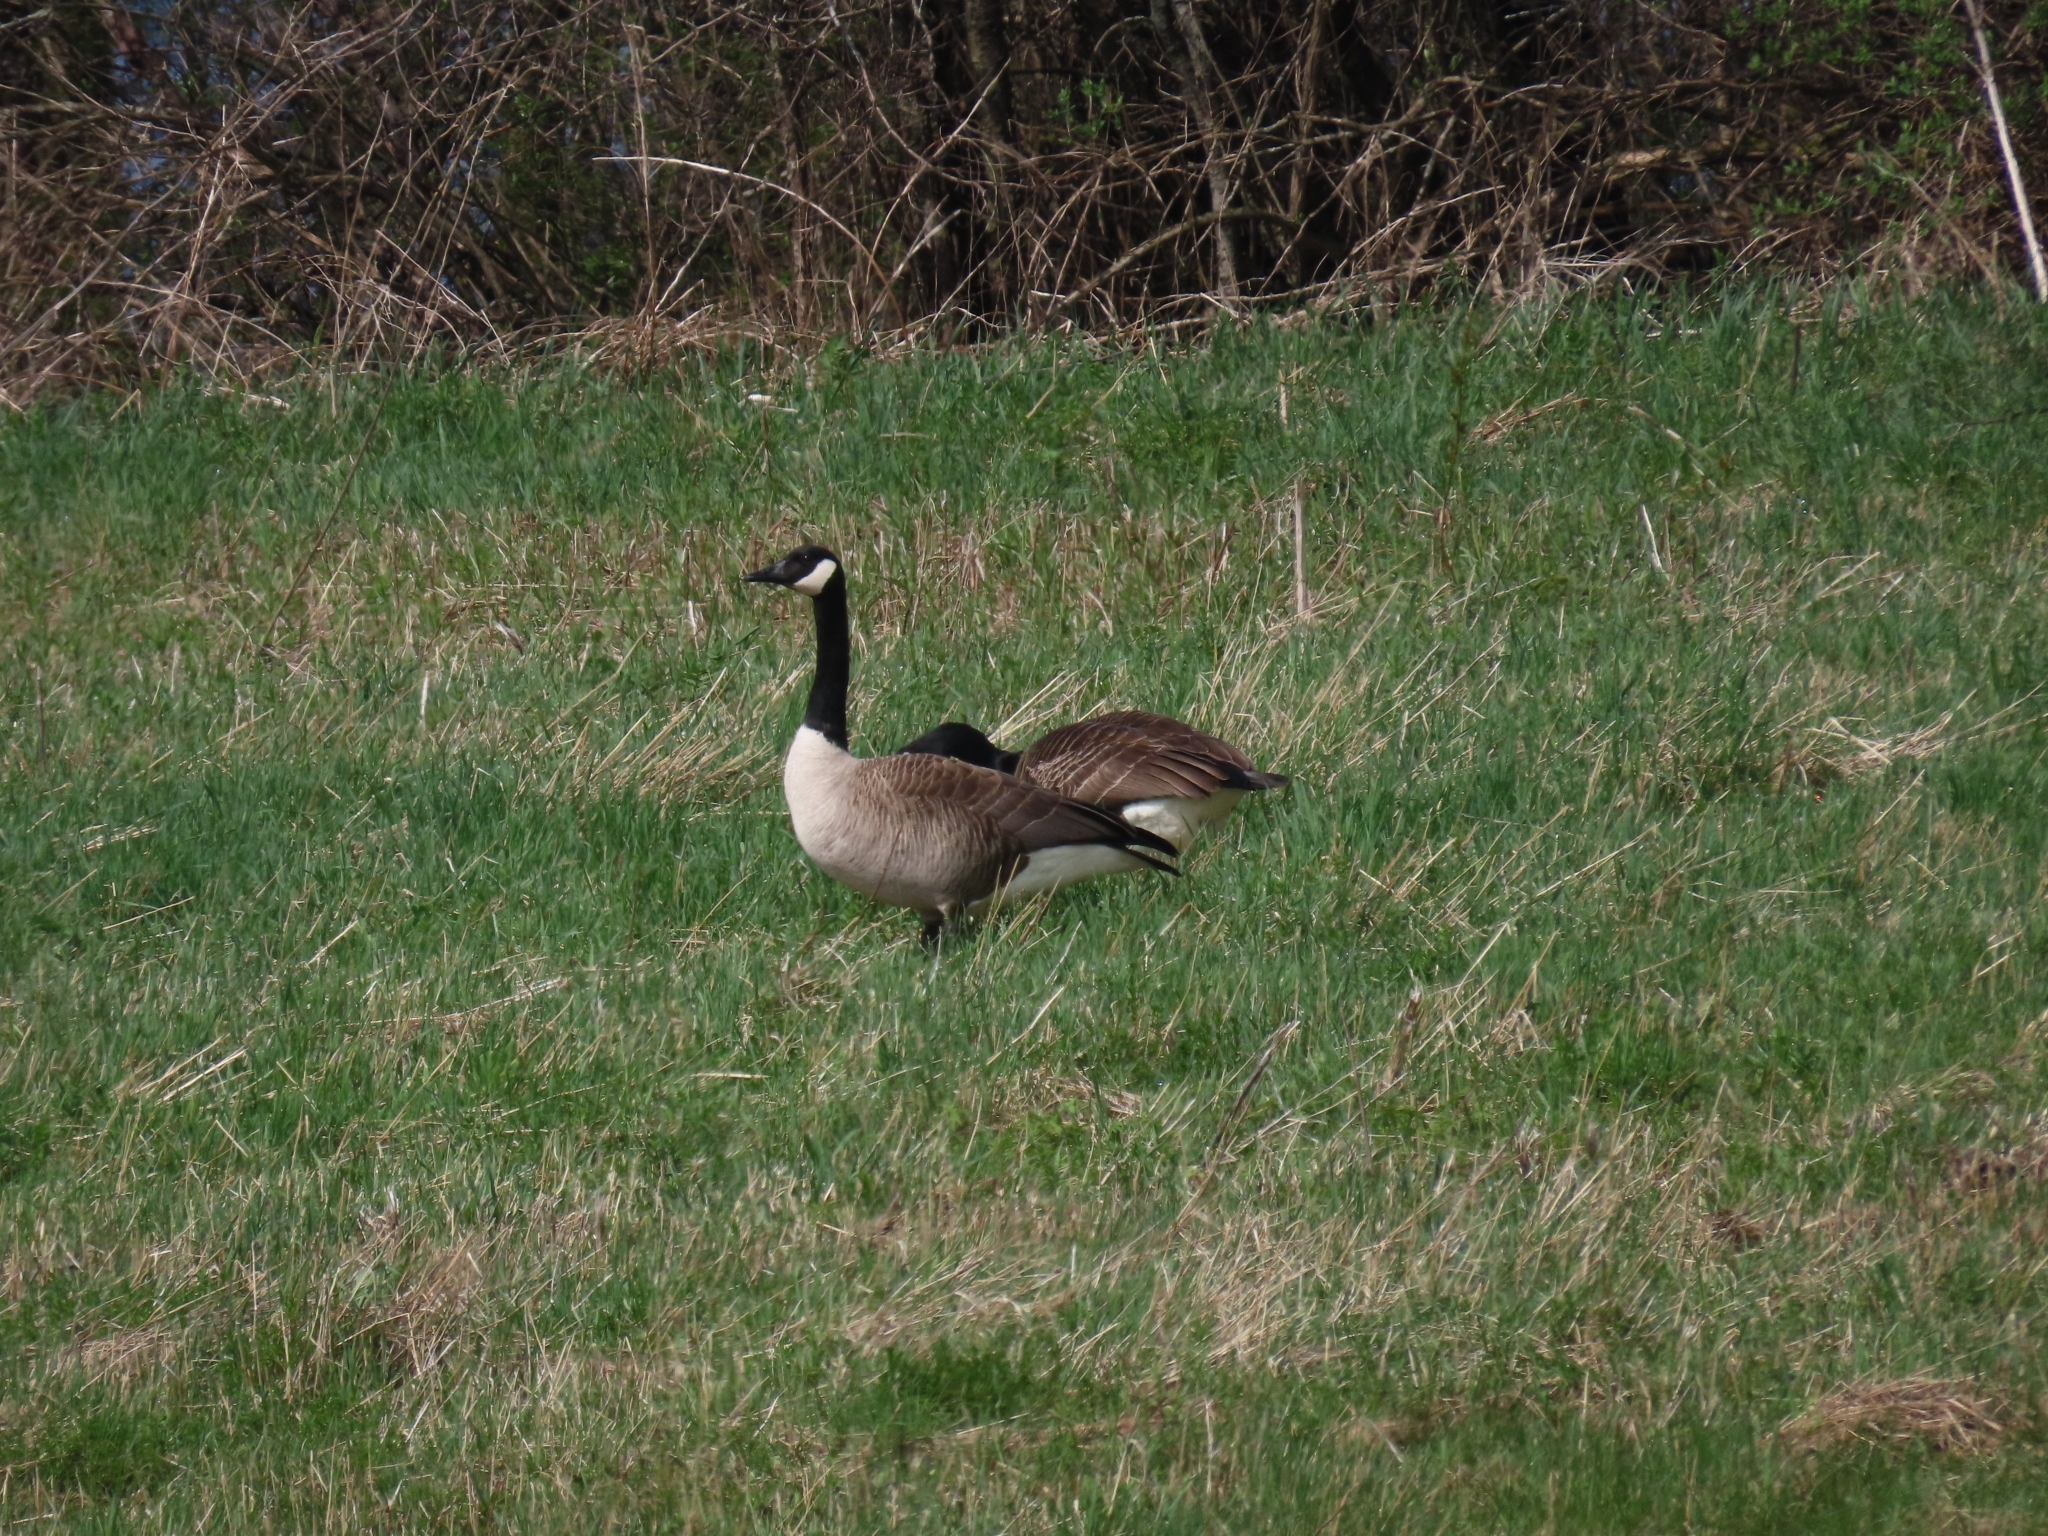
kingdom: Animalia
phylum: Chordata
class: Aves
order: Anseriformes
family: Anatidae
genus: Branta
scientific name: Branta canadensis
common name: Canada goose
